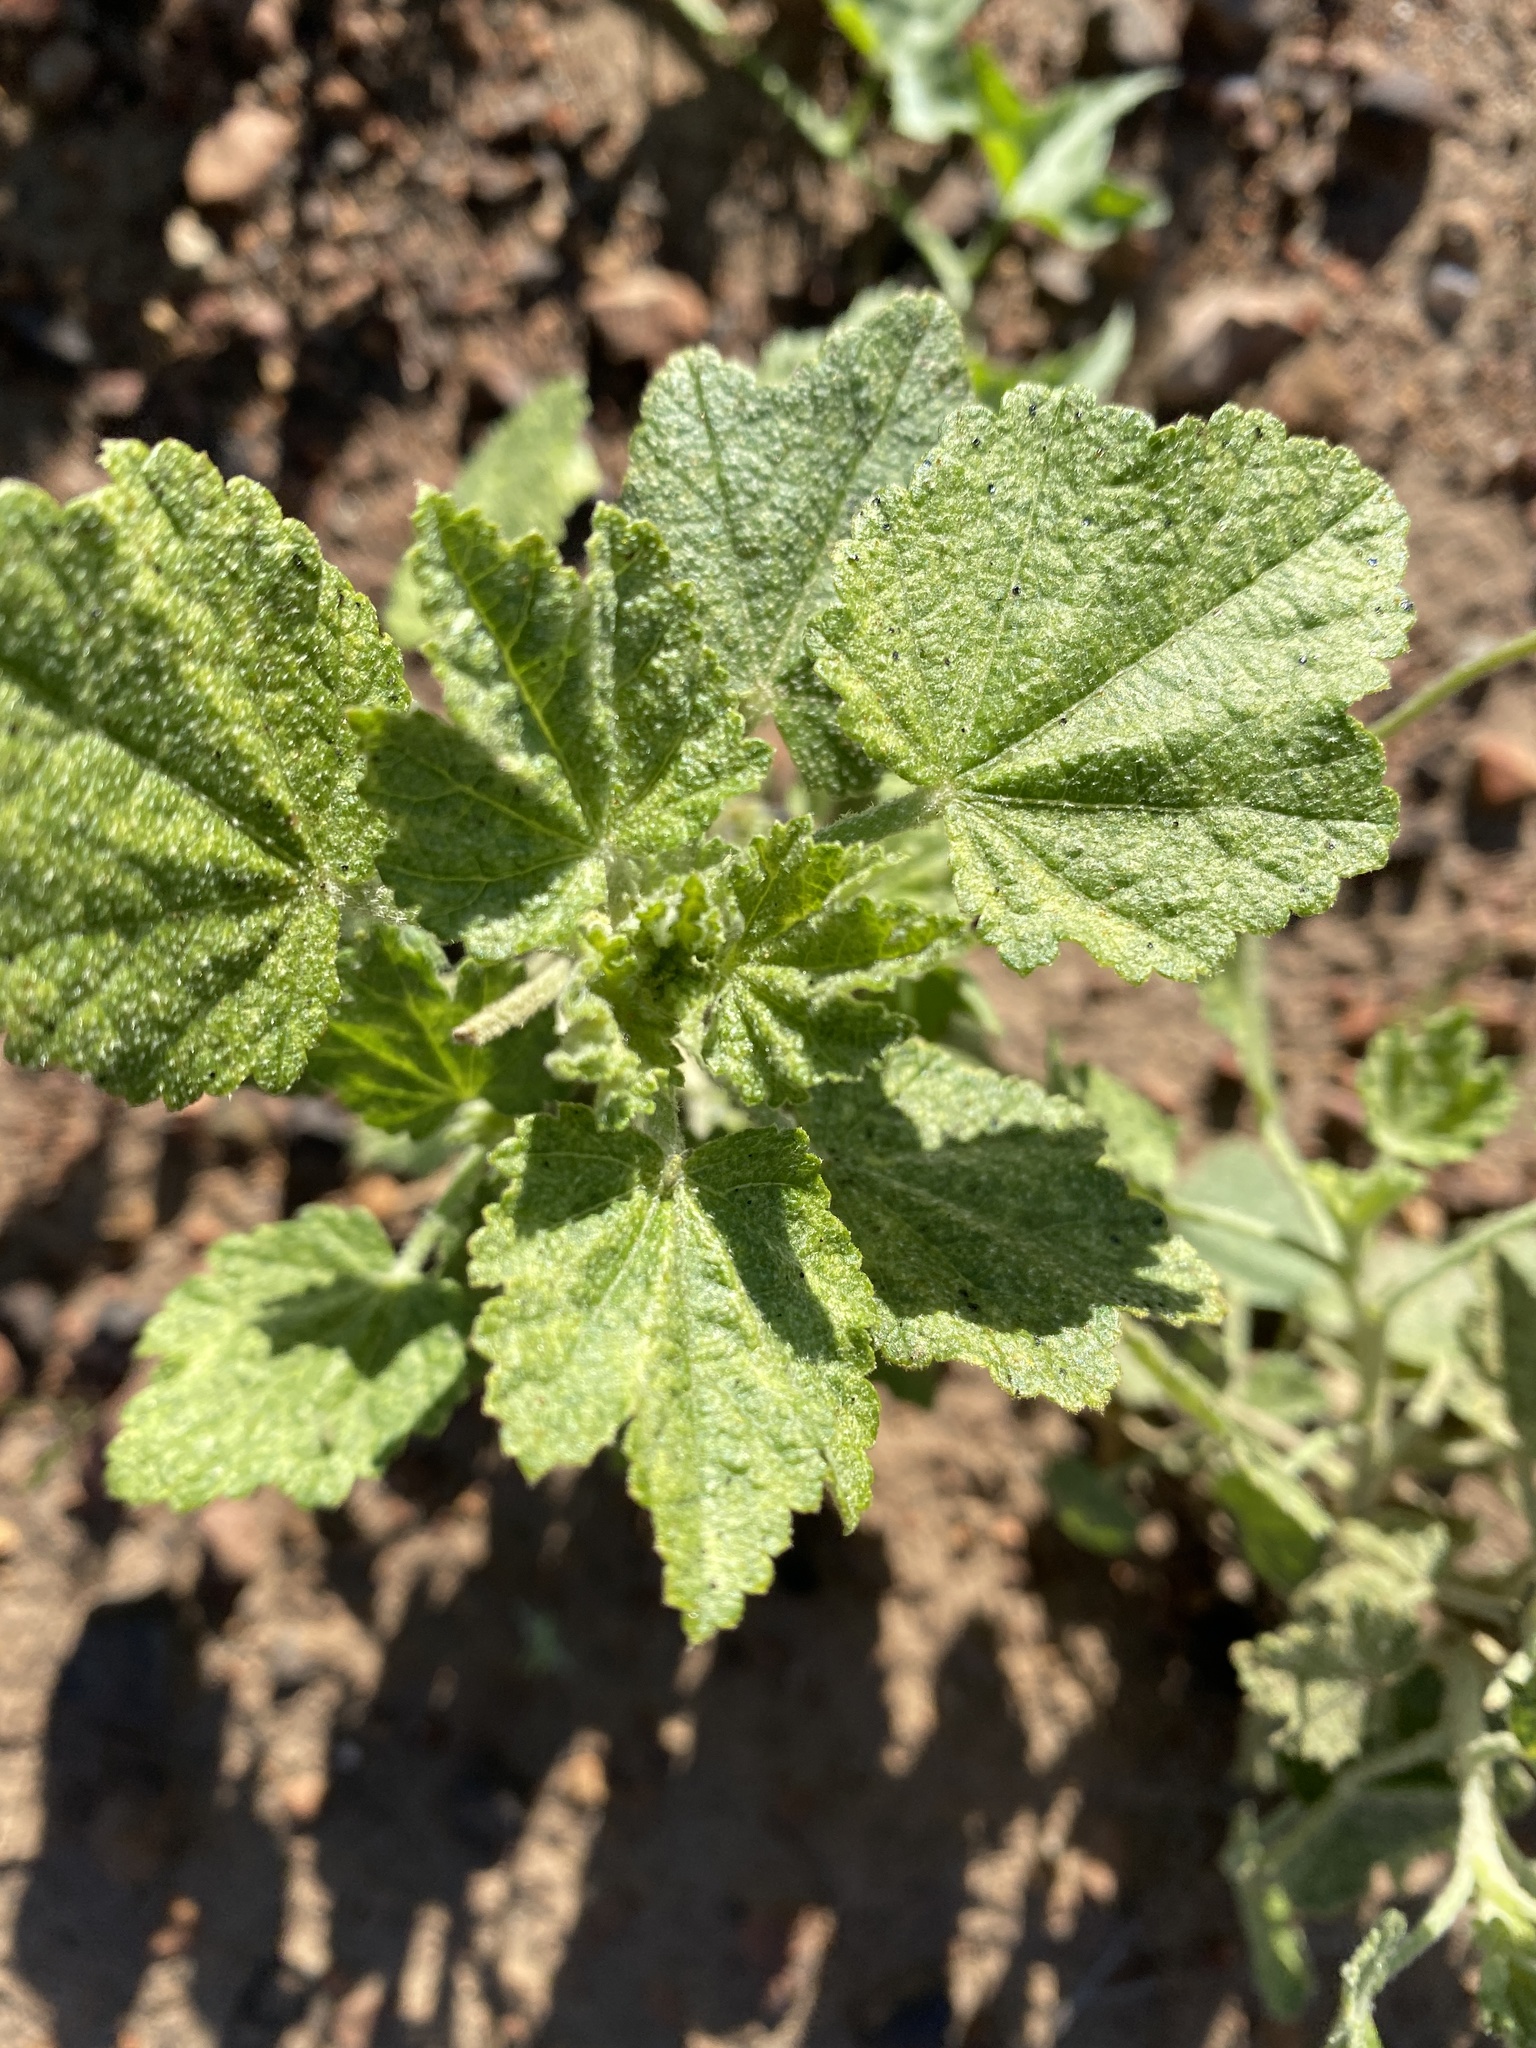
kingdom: Plantae
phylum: Tracheophyta
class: Magnoliopsida
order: Malvales
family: Malvaceae
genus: Malacothamnus
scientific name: Malacothamnus fasciculatus
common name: Sant cruz island bush-mallow
